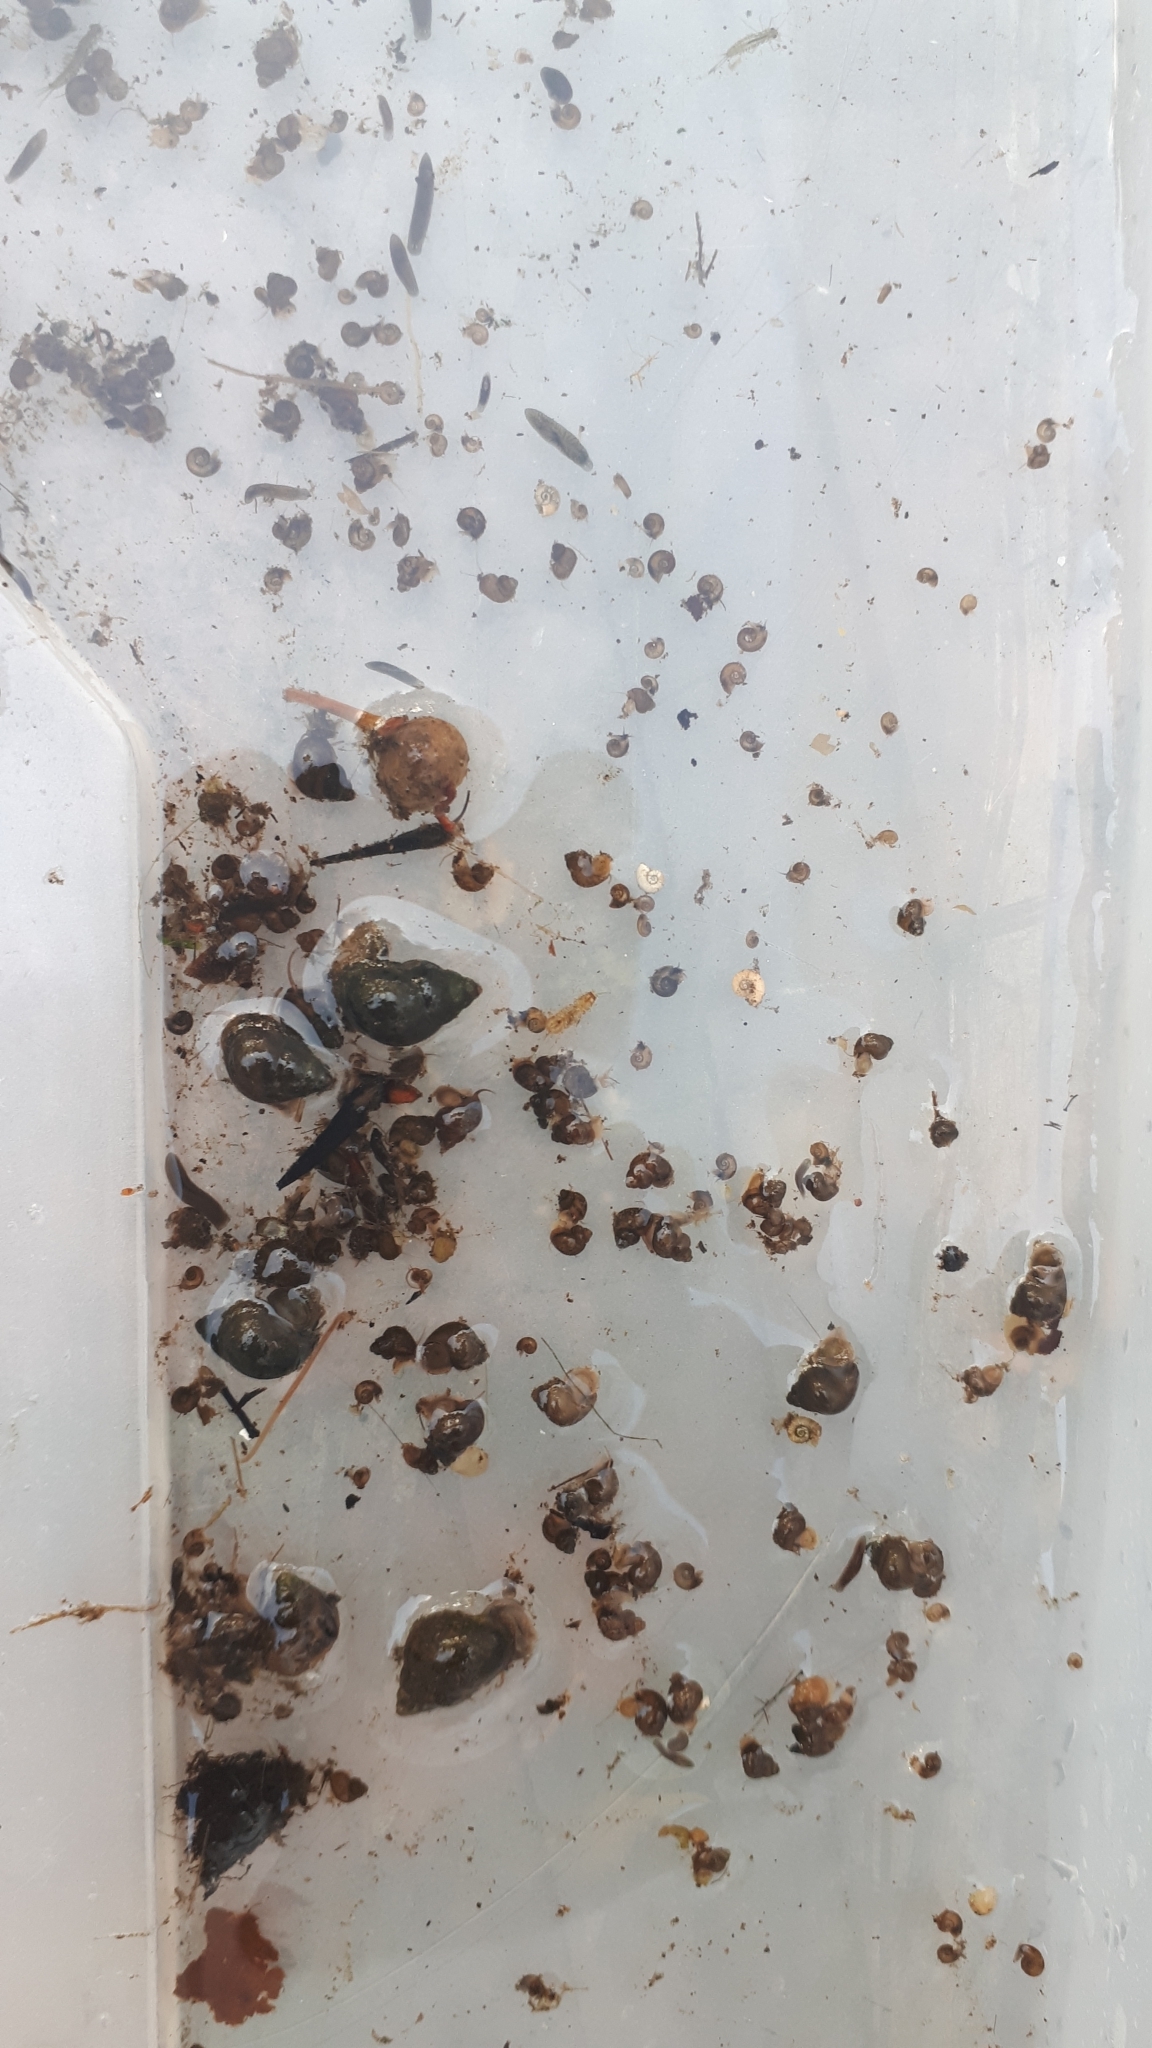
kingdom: Animalia
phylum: Mollusca
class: Gastropoda
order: Littorinimorpha
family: Bithyniidae
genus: Bithynia
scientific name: Bithynia tentaculata
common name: Common bithynia
